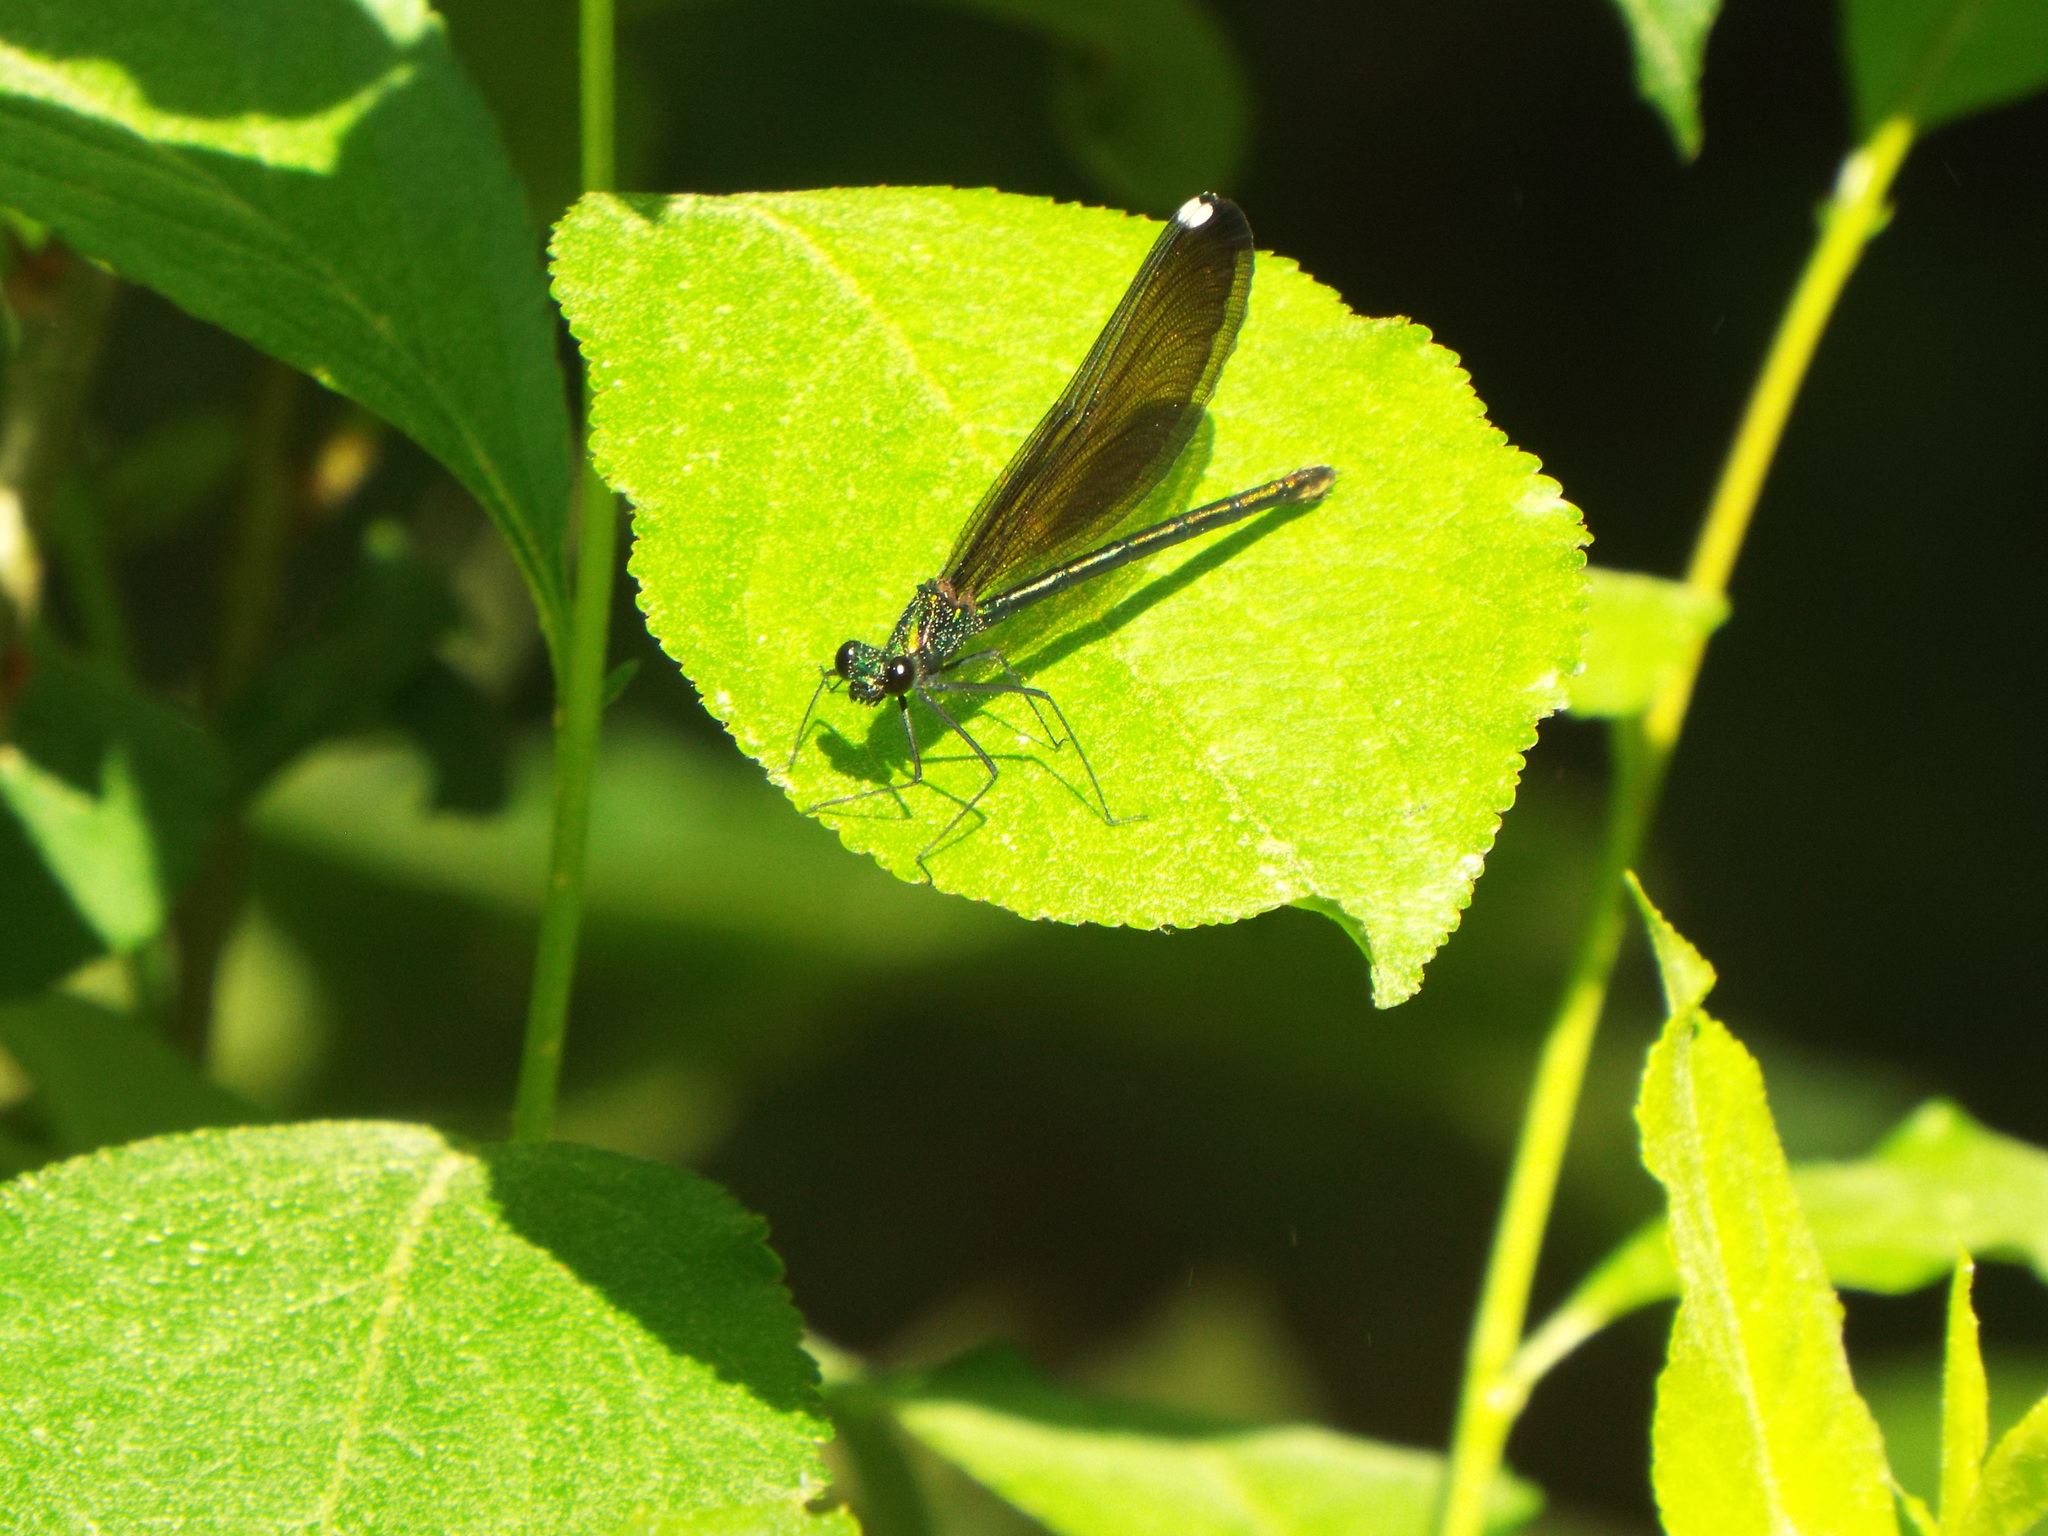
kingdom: Animalia
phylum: Arthropoda
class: Insecta
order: Odonata
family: Calopterygidae
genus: Calopteryx
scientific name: Calopteryx maculata
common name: Ebony jewelwing
